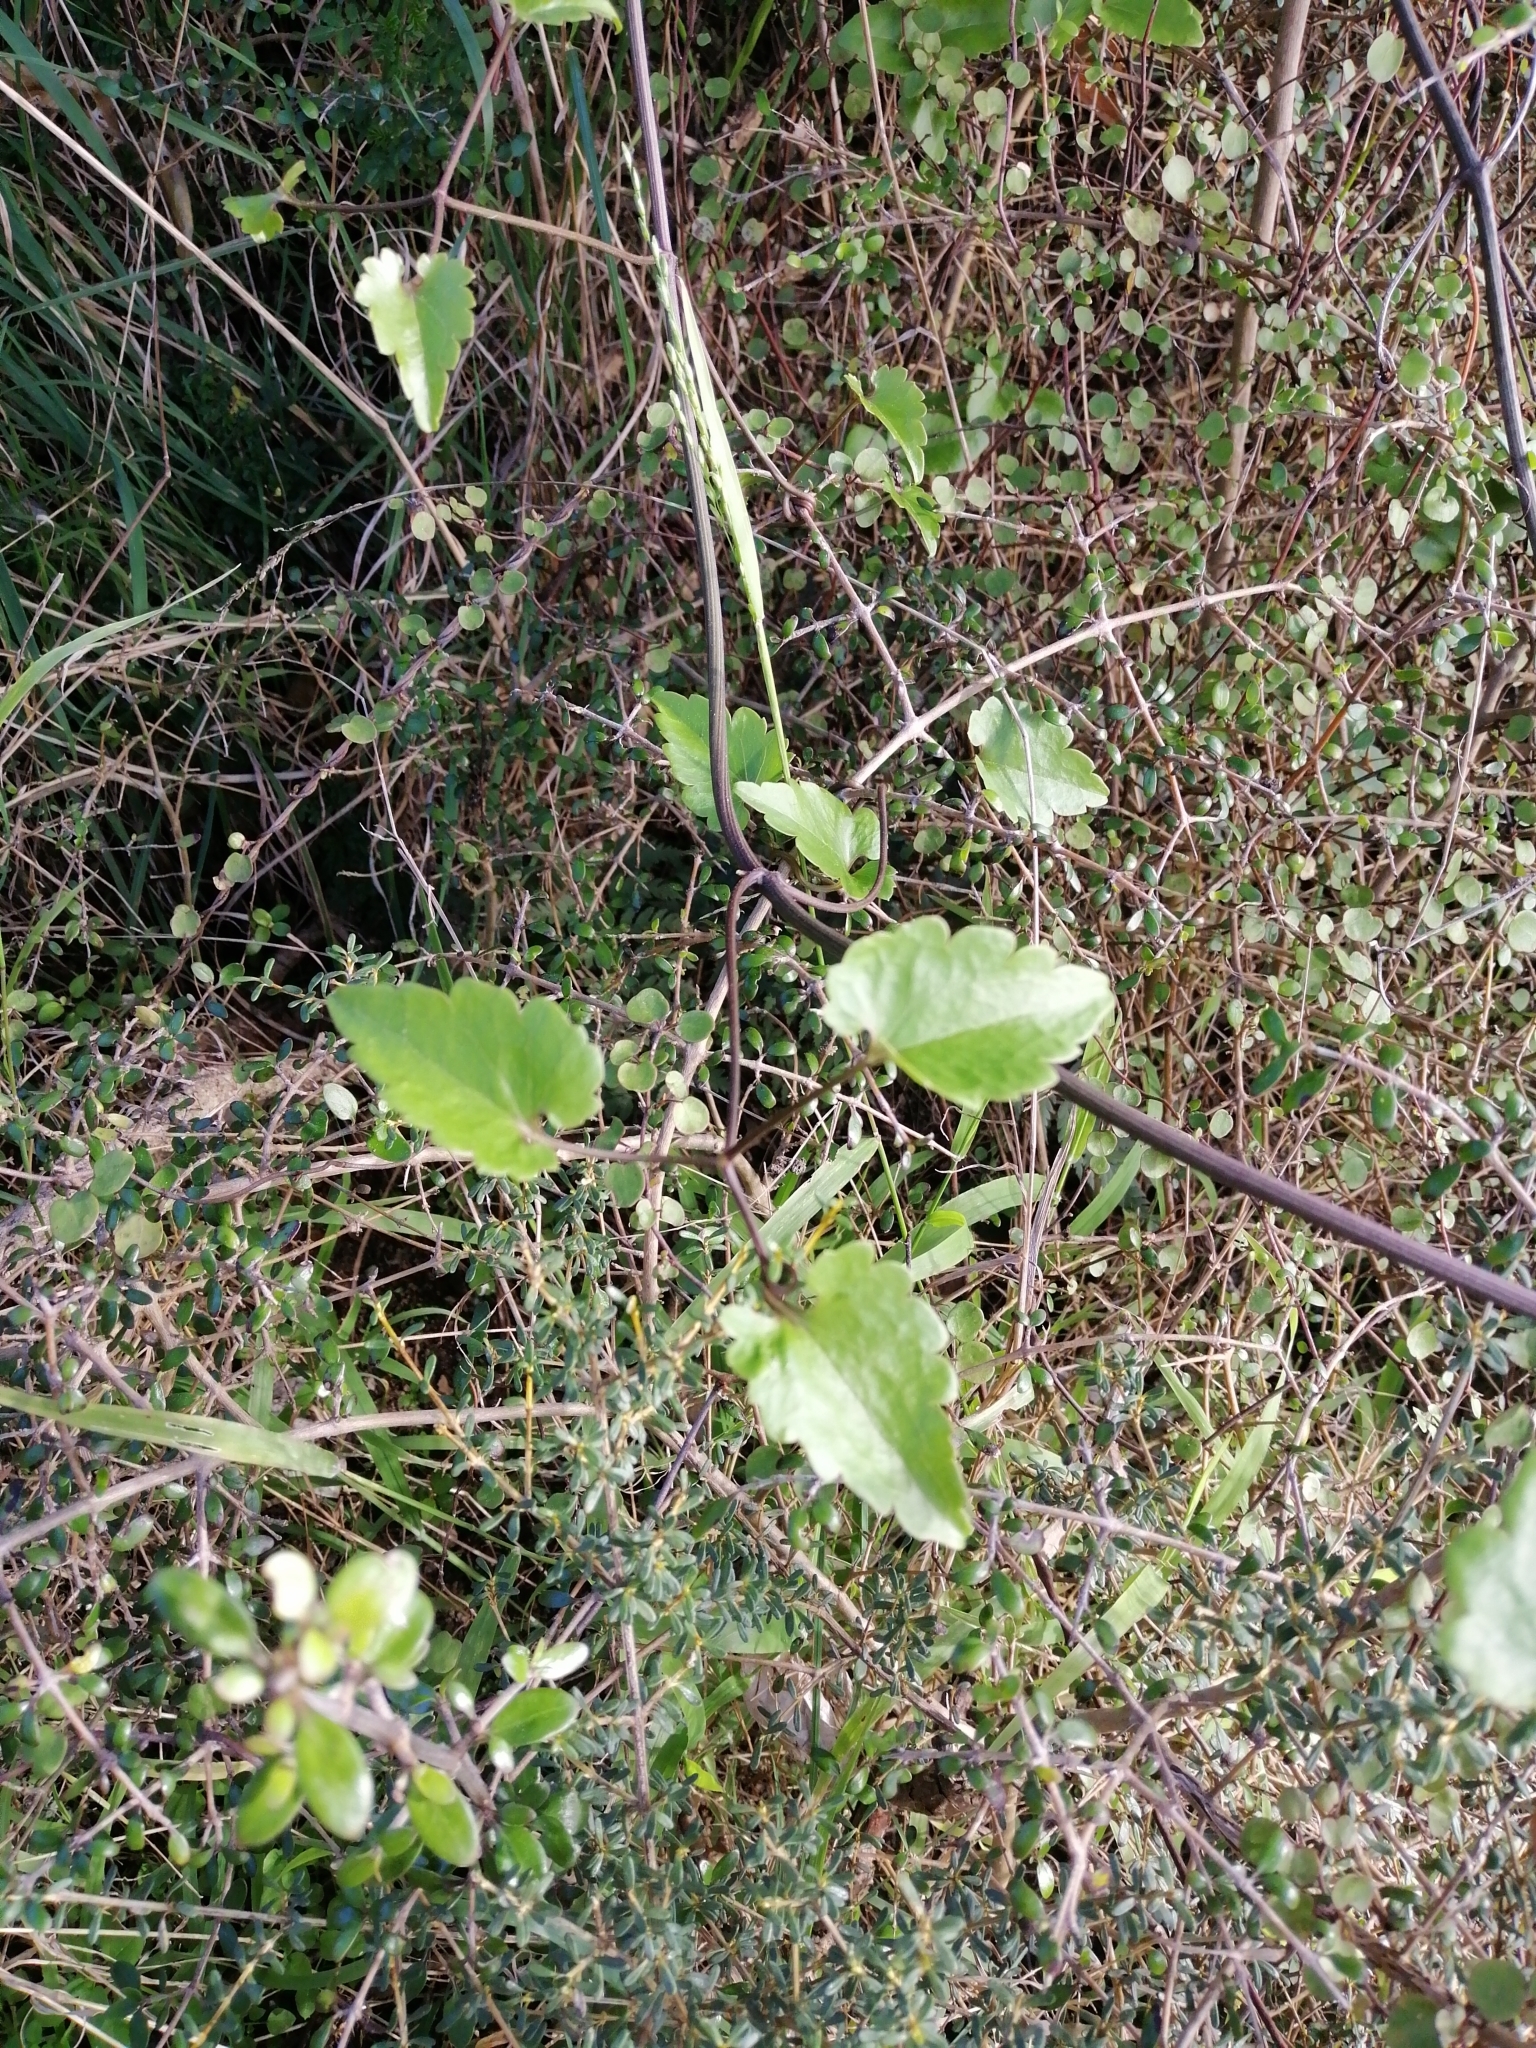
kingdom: Plantae
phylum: Tracheophyta
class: Magnoliopsida
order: Ranunculales
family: Ranunculaceae
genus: Clematis
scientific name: Clematis forsteri
